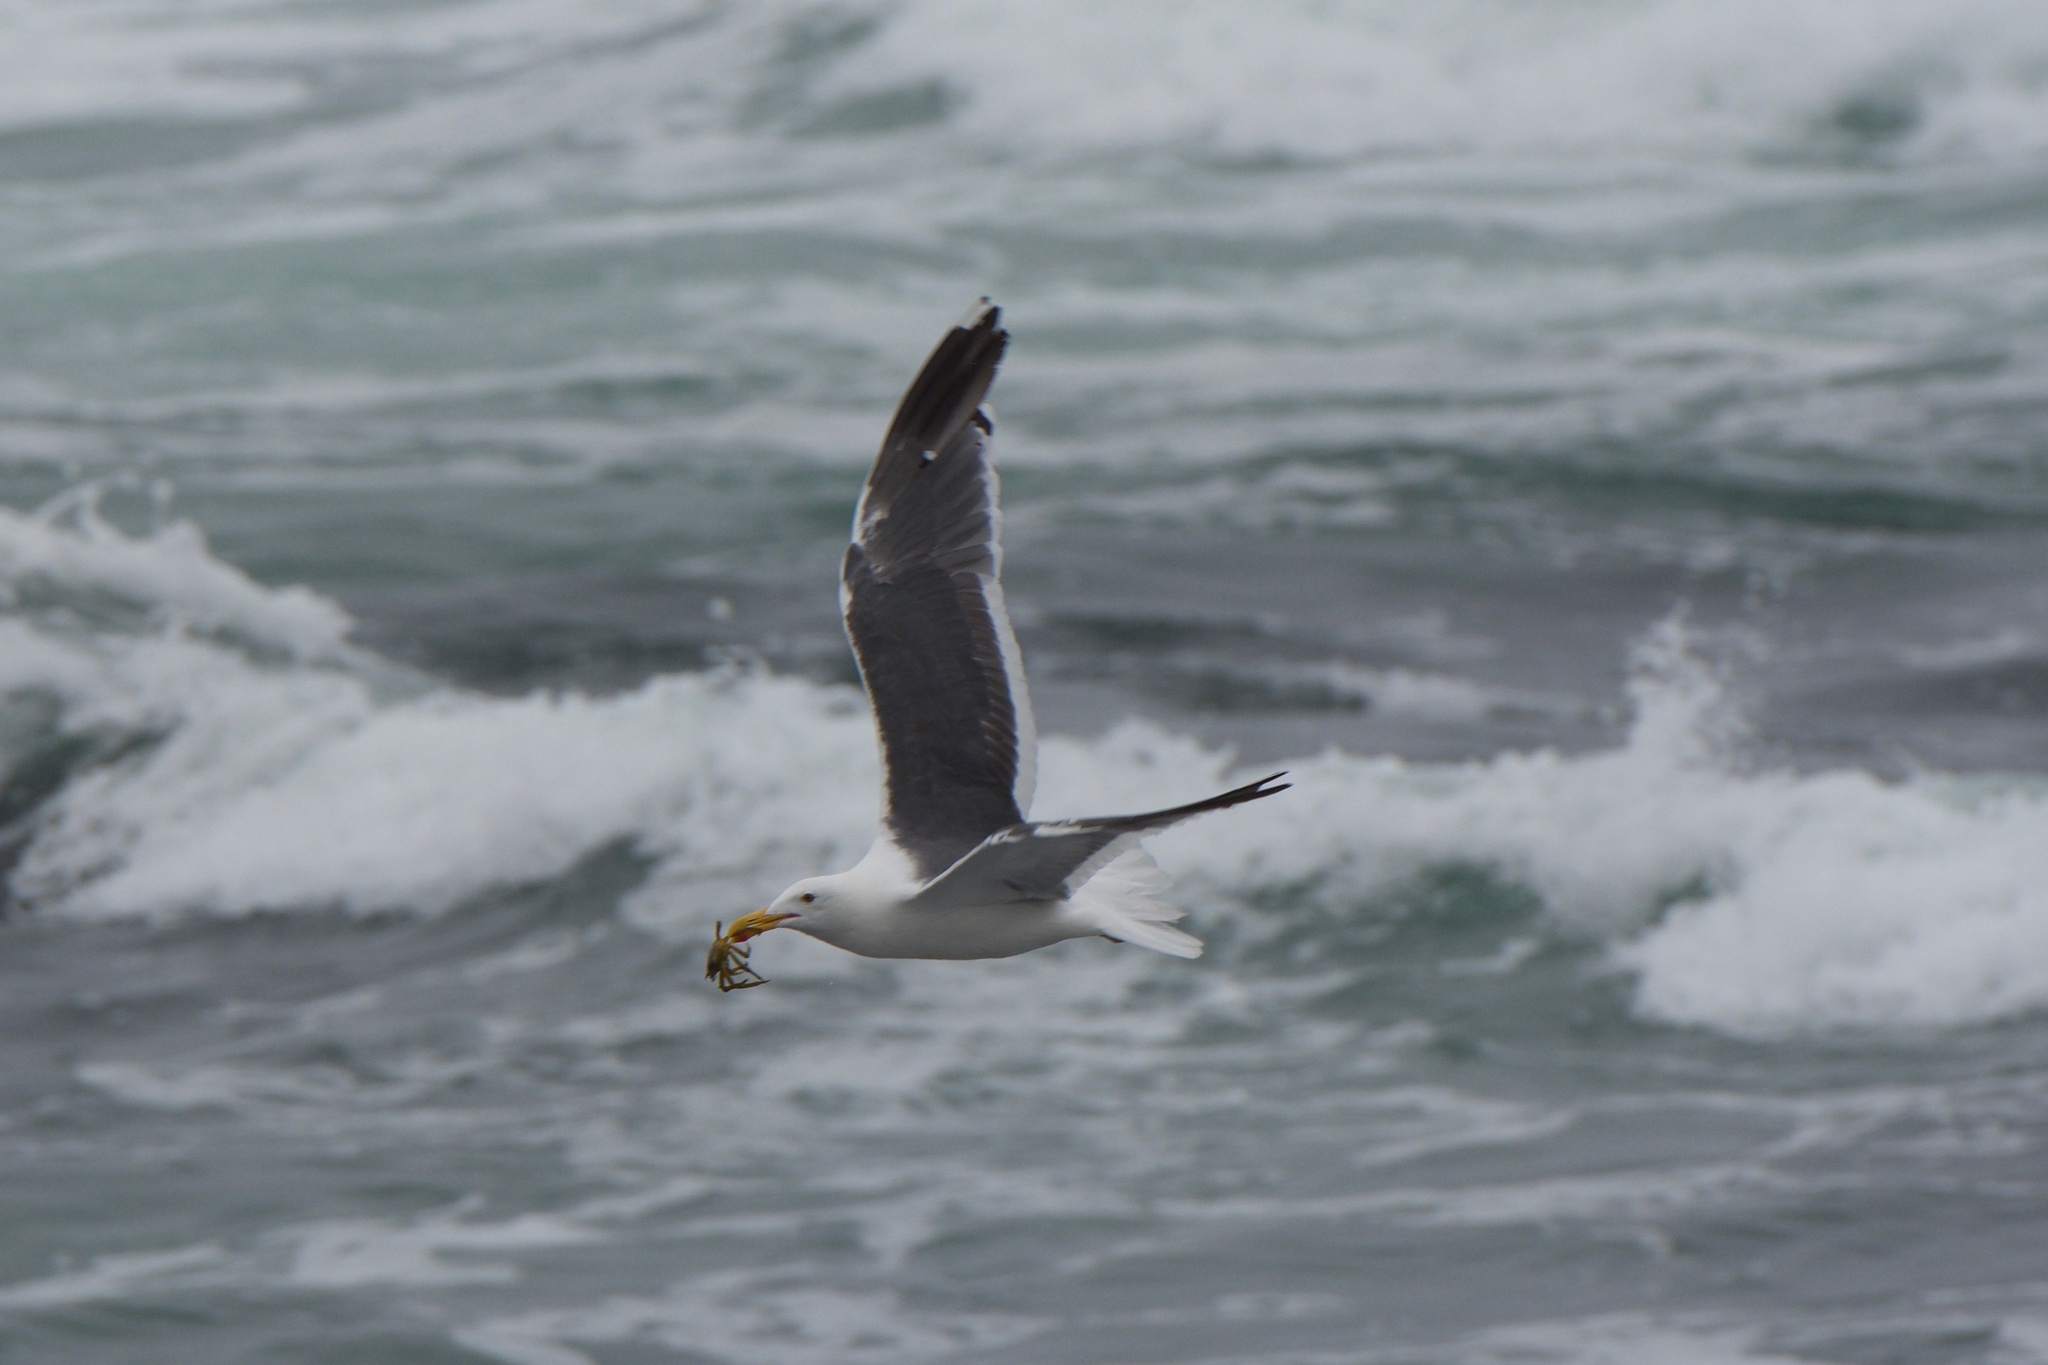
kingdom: Animalia
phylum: Chordata
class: Aves
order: Charadriiformes
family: Laridae
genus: Larus
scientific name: Larus occidentalis
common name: Western gull
